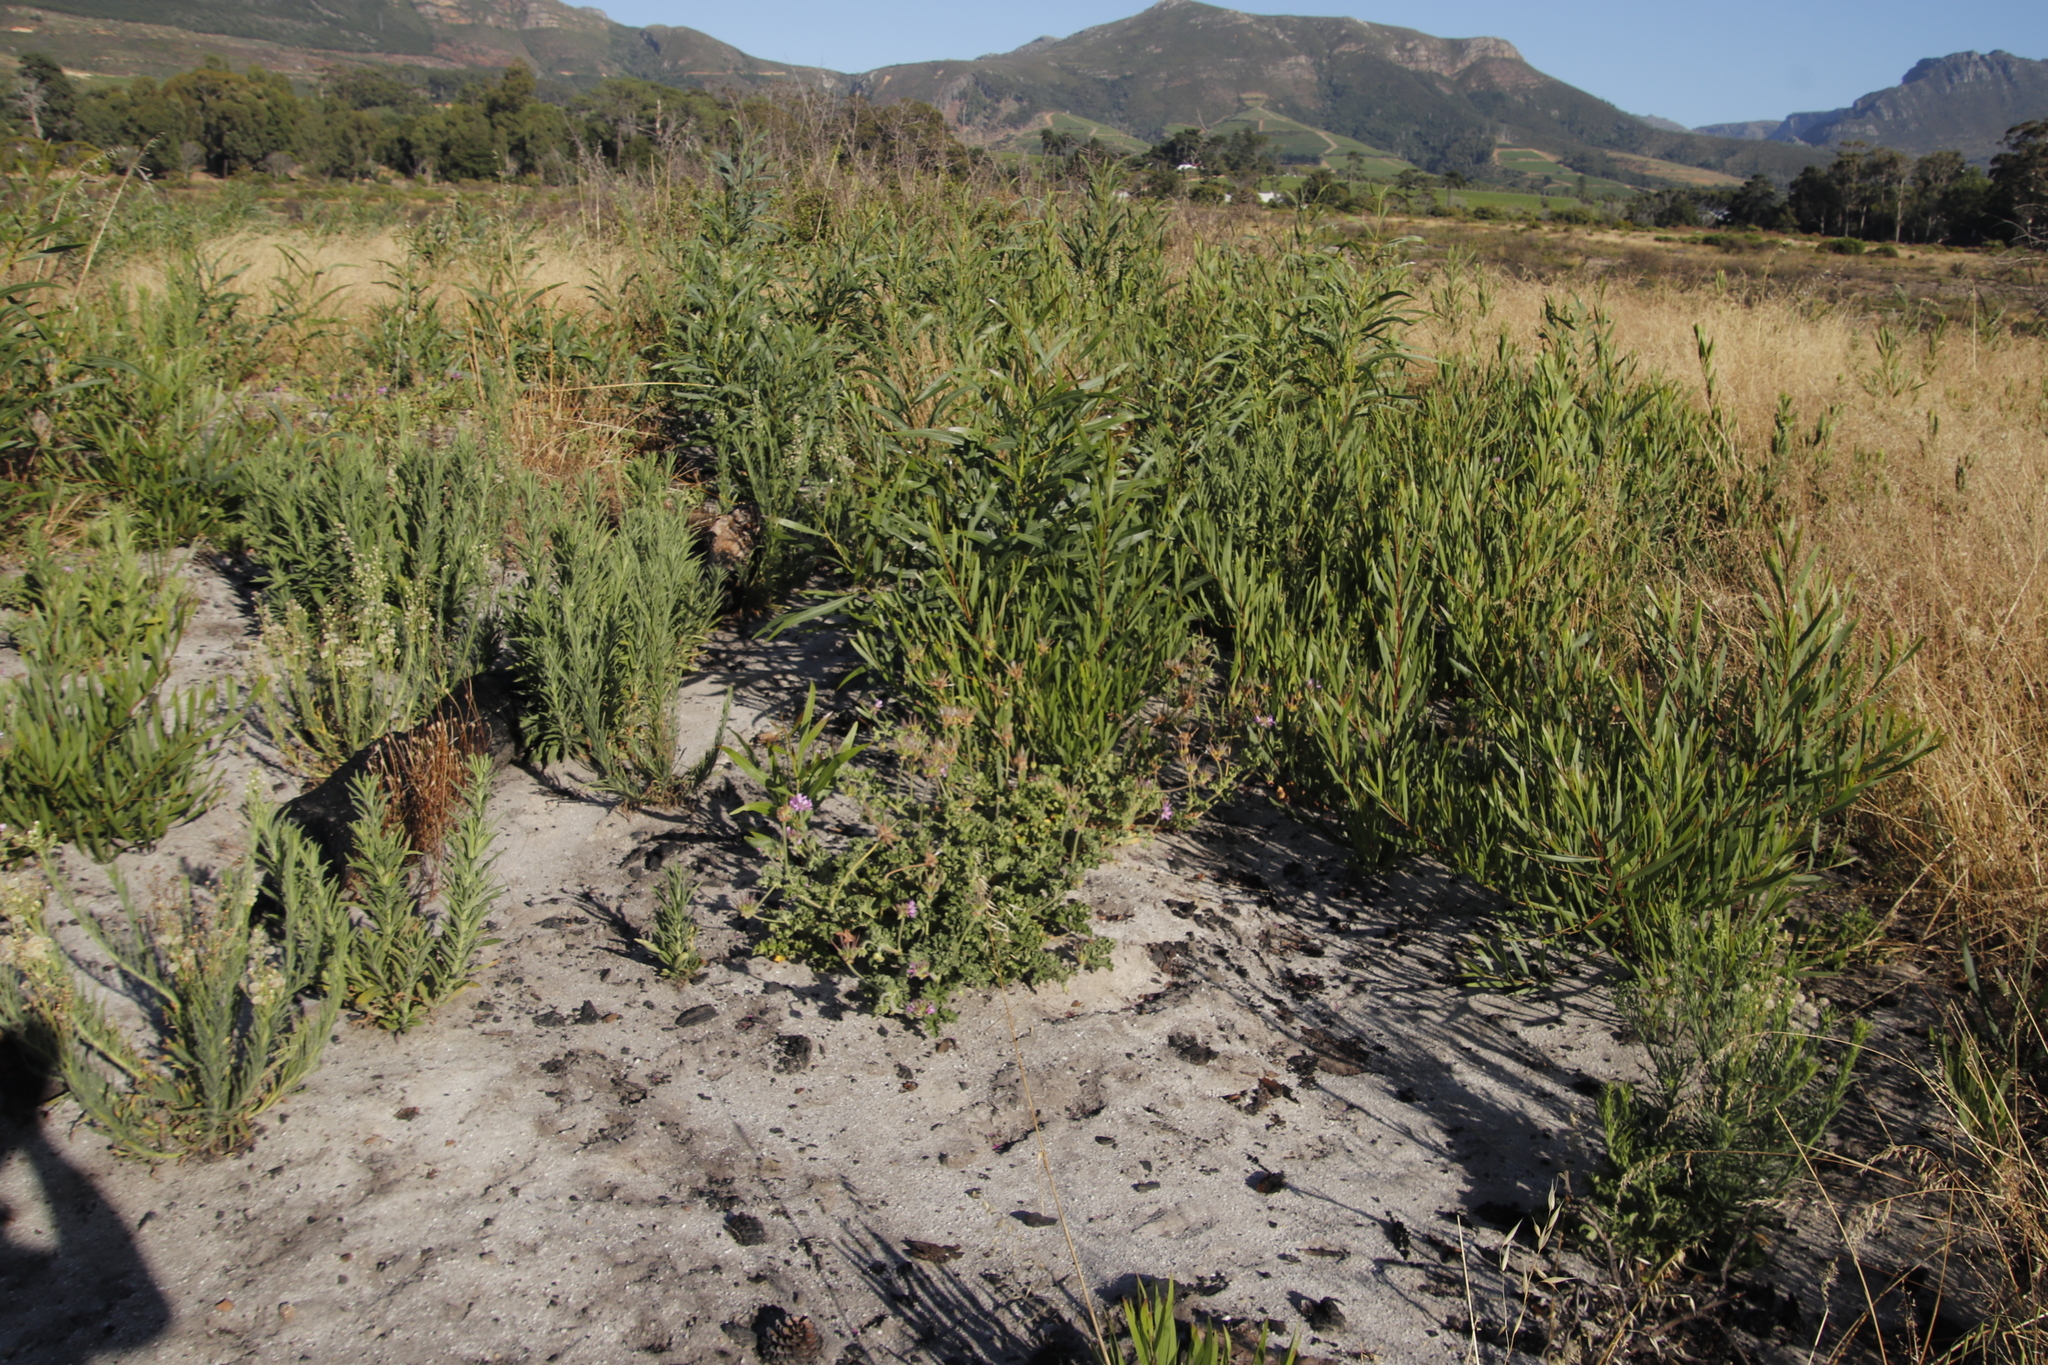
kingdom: Plantae
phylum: Tracheophyta
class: Magnoliopsida
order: Fabales
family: Fabaceae
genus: Acacia
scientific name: Acacia longifolia
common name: Sydney golden wattle
